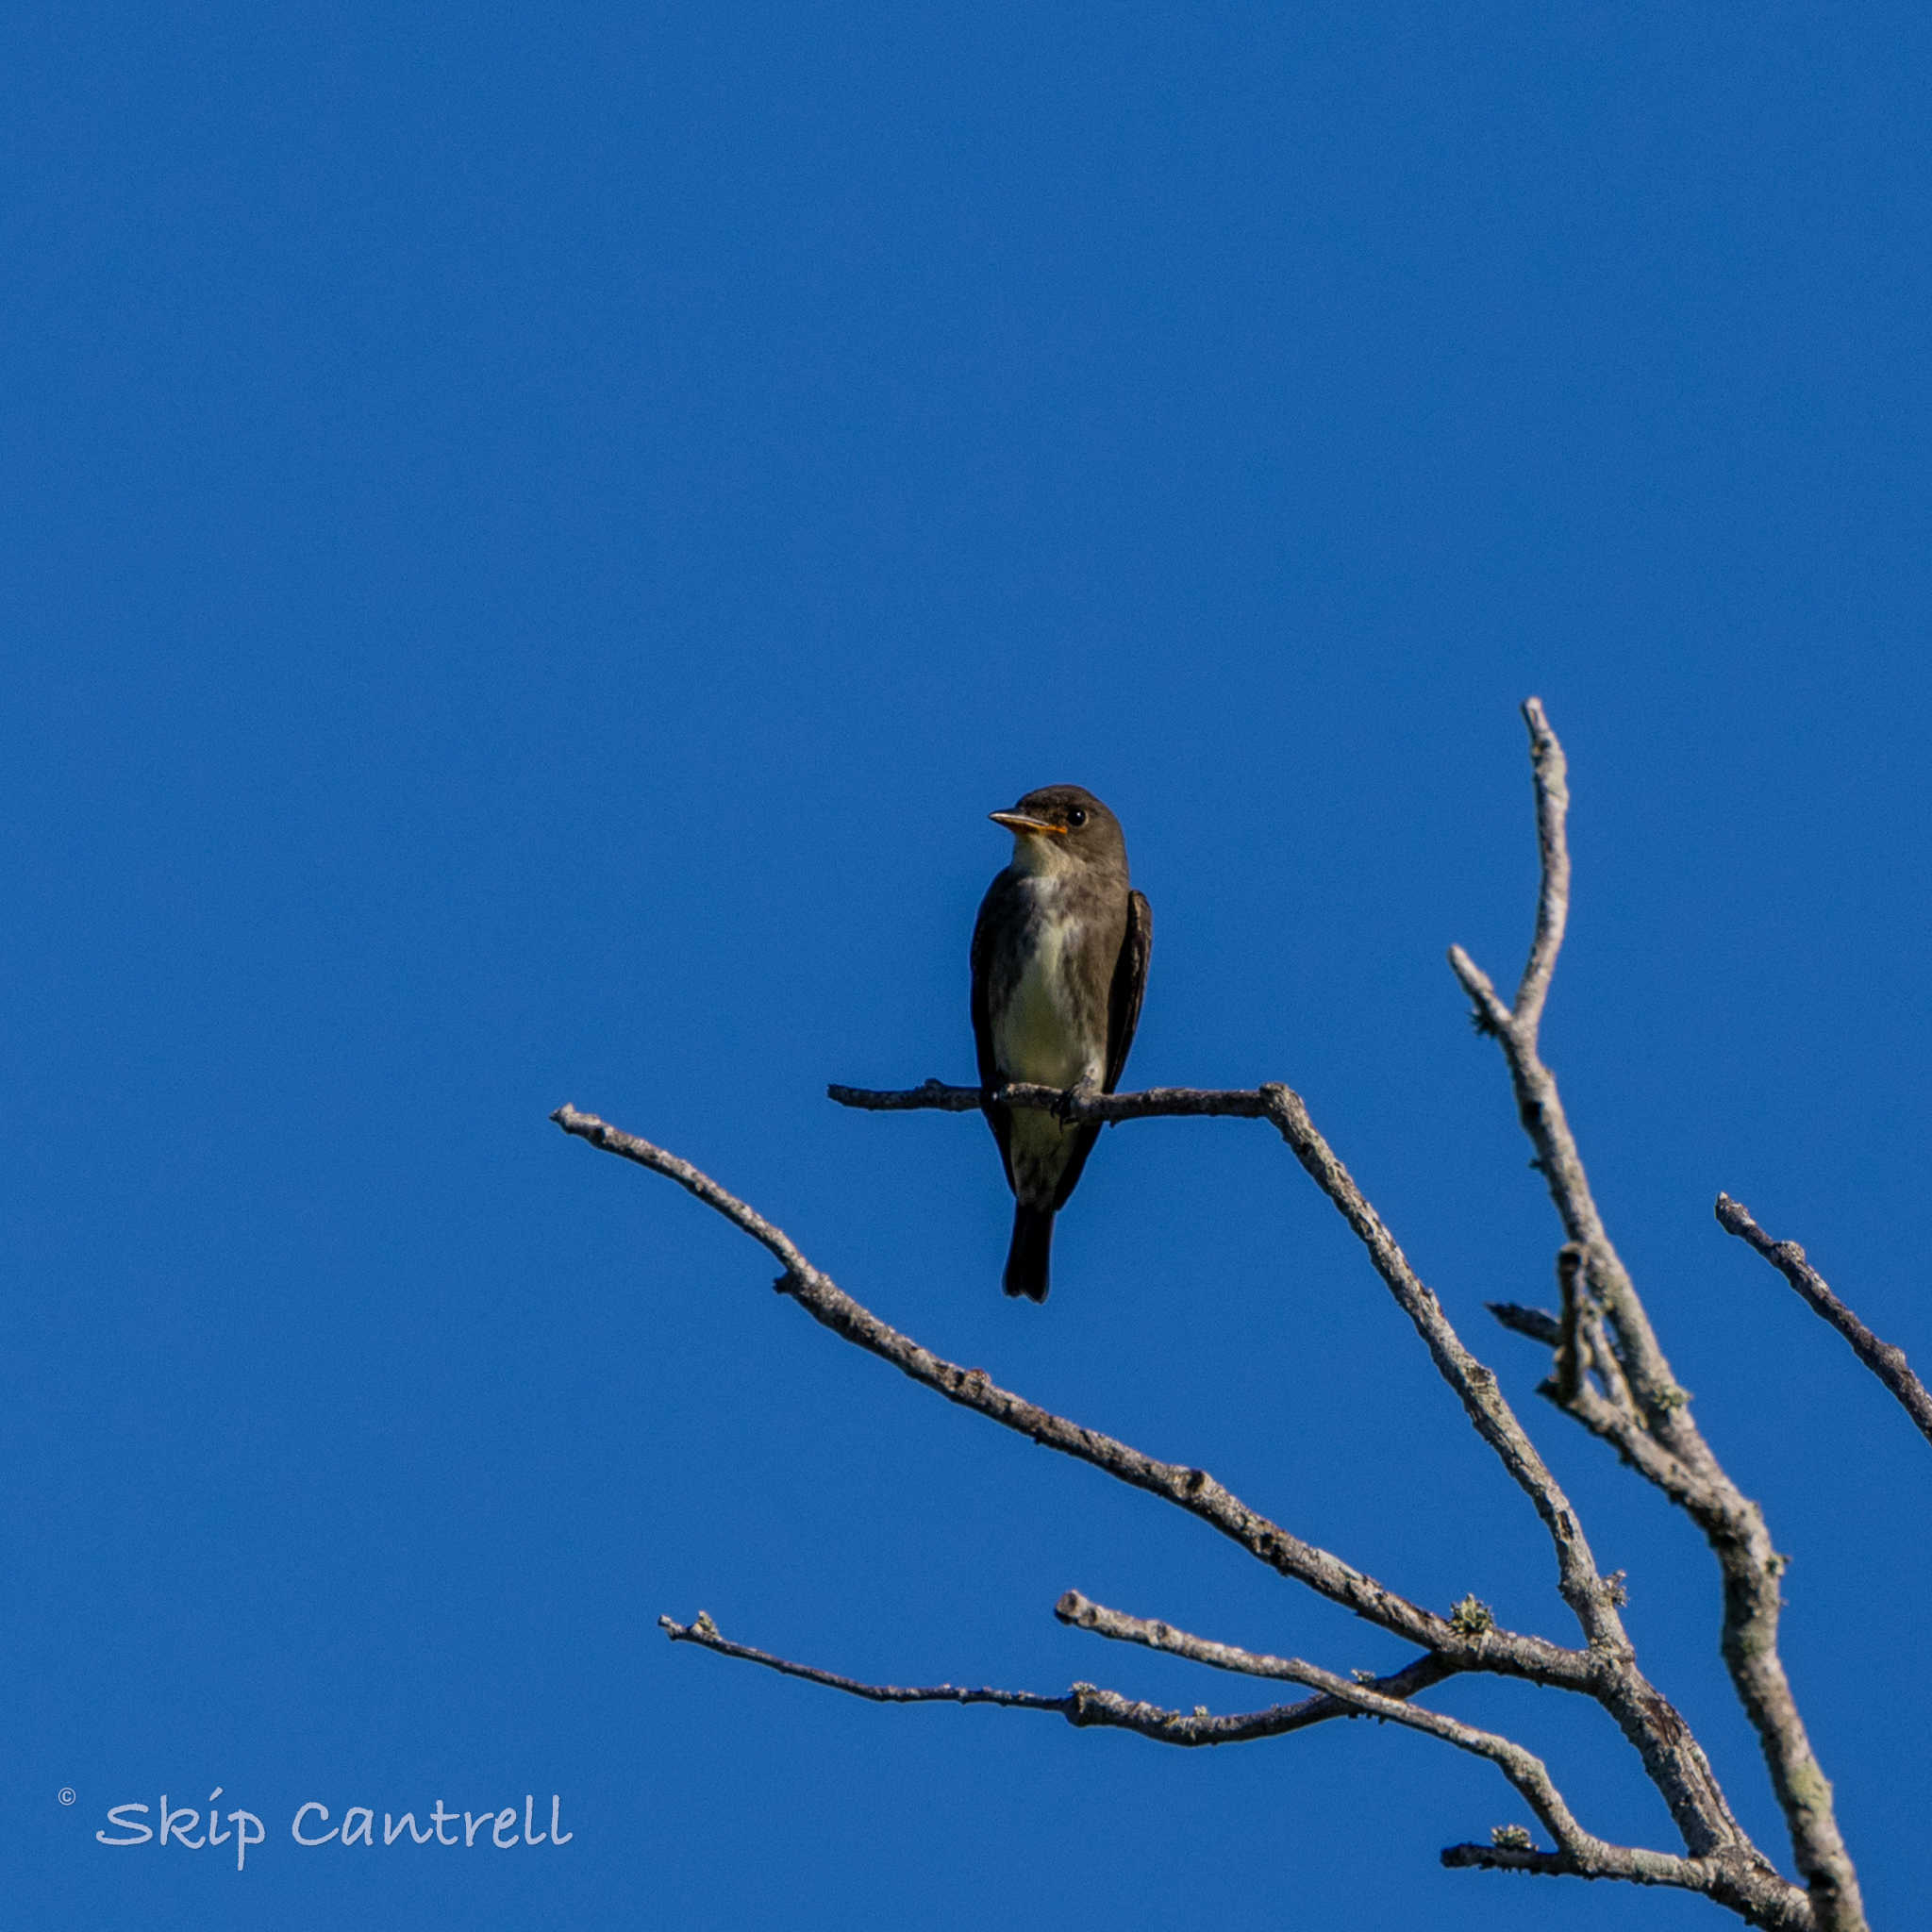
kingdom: Animalia
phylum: Chordata
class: Aves
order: Passeriformes
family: Tyrannidae
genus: Contopus
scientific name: Contopus cooperi
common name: Olive-sided flycatcher
